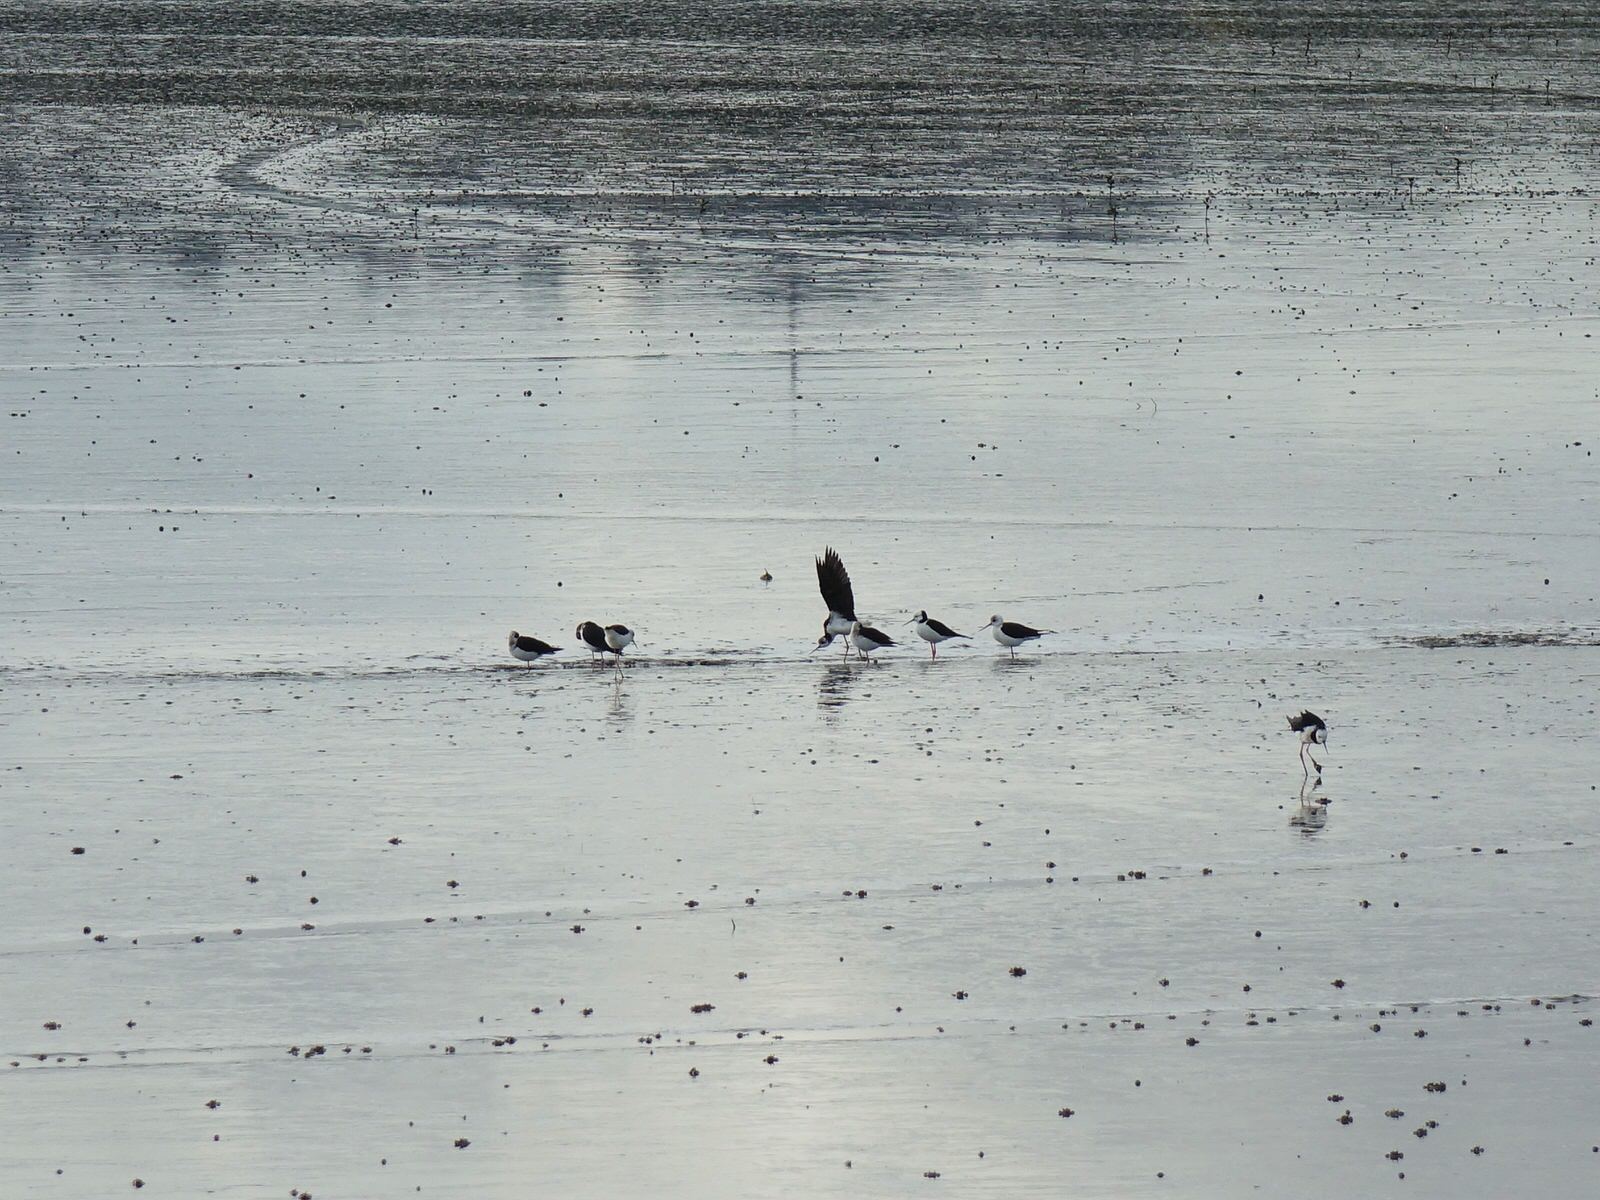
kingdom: Animalia
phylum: Chordata
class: Aves
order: Charadriiformes
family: Recurvirostridae
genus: Himantopus
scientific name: Himantopus leucocephalus
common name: White-headed stilt
